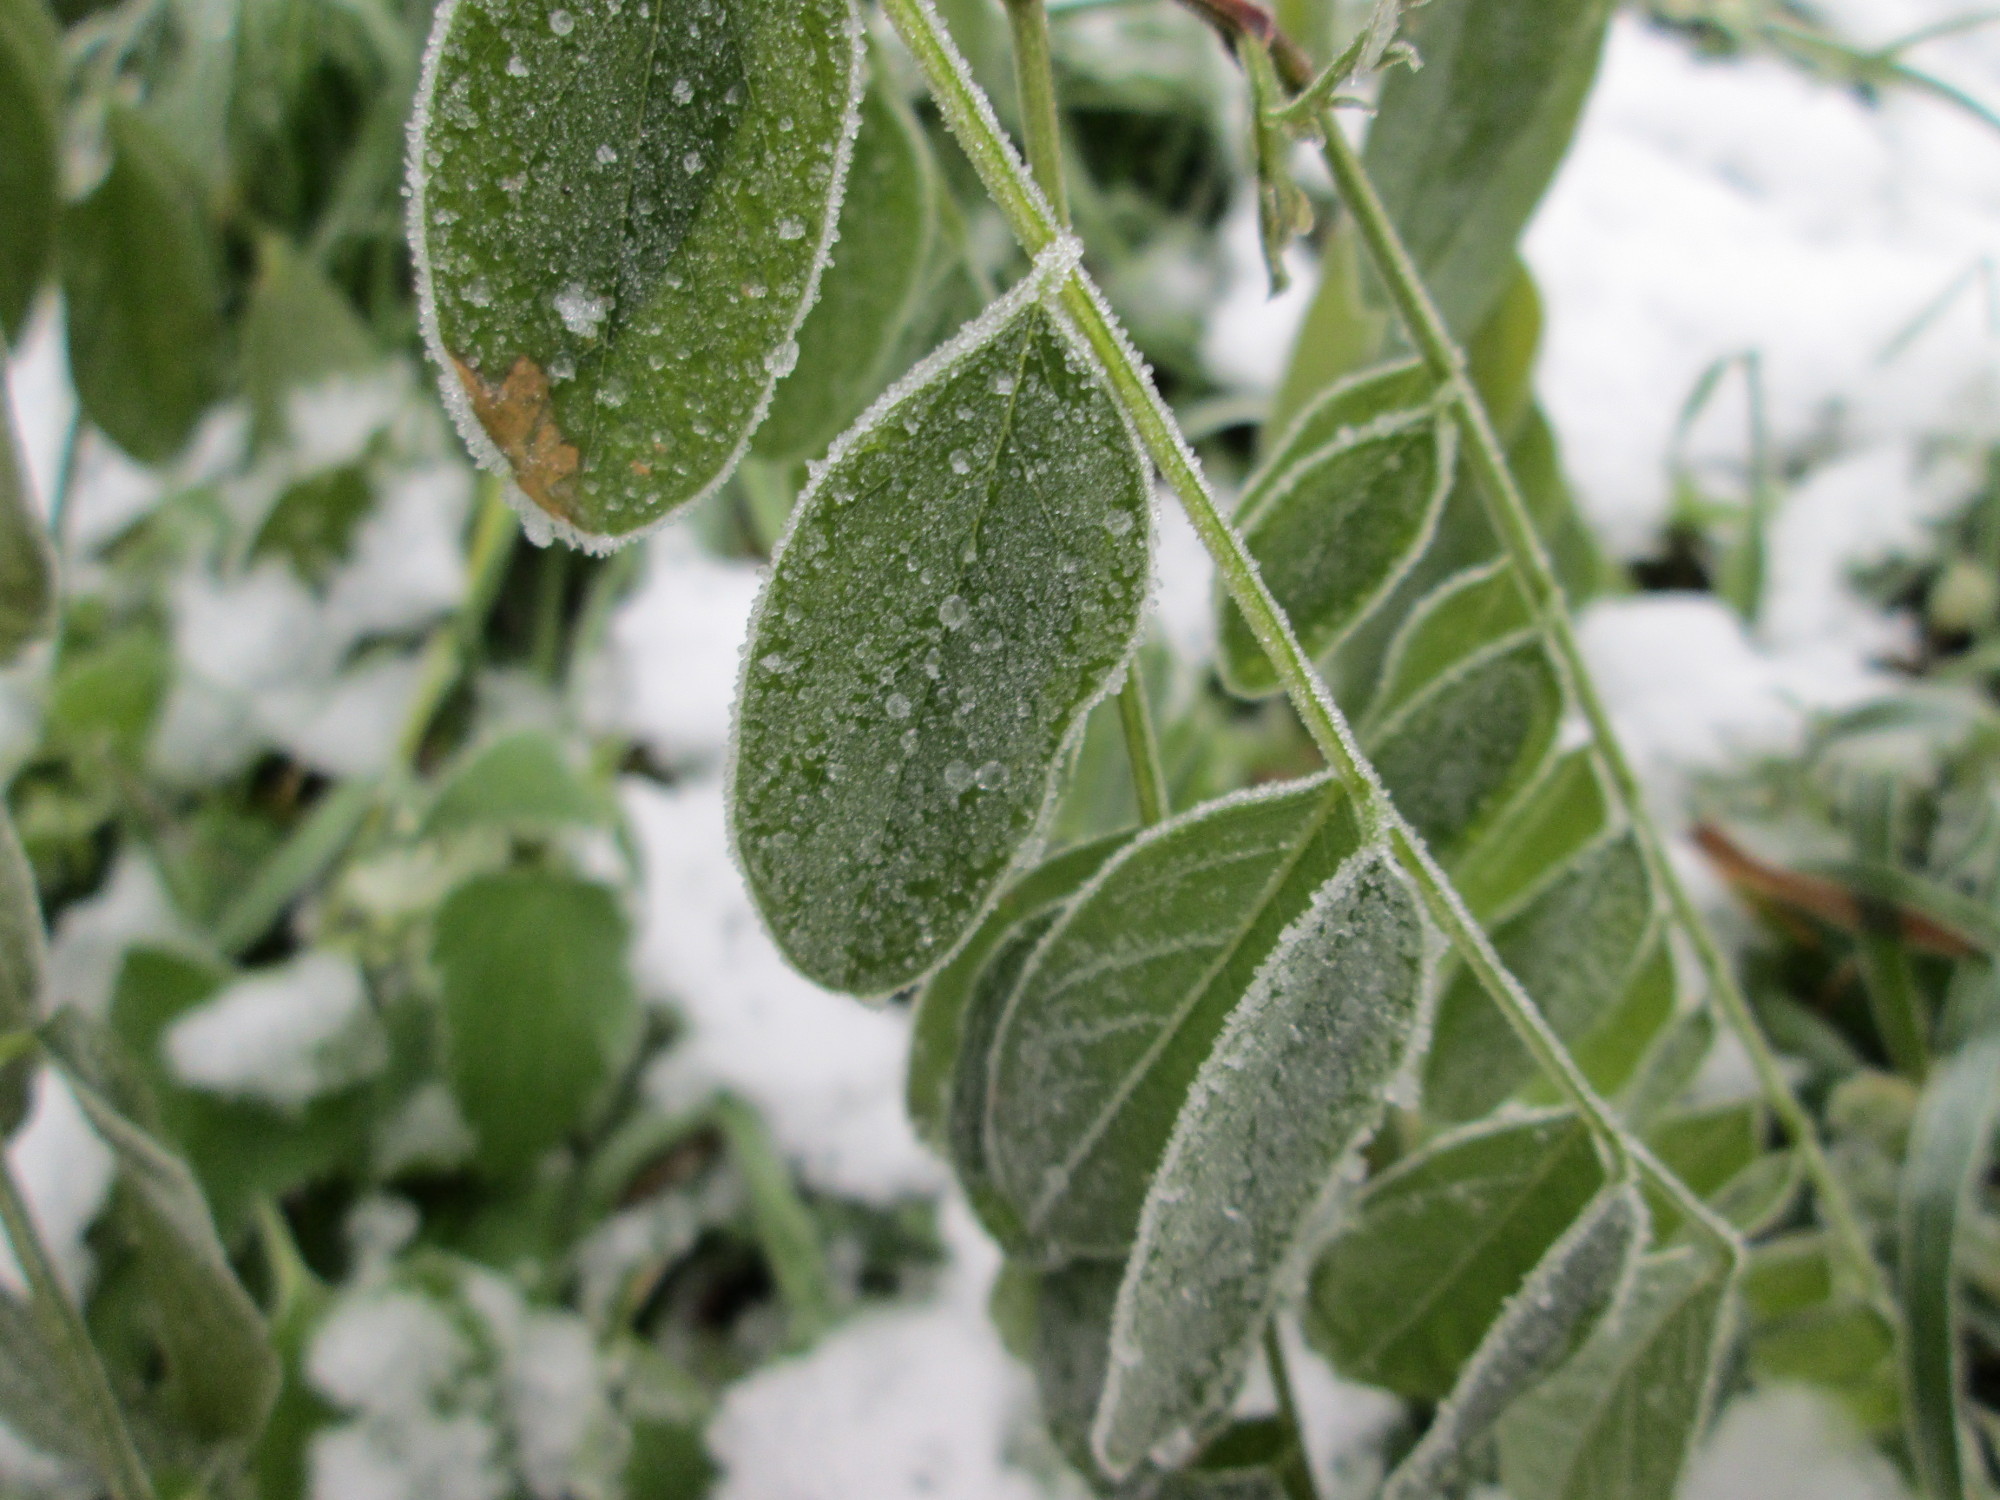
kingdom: Plantae
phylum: Tracheophyta
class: Magnoliopsida
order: Fabales
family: Fabaceae
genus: Robinia
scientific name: Robinia pseudoacacia
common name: Black locust
